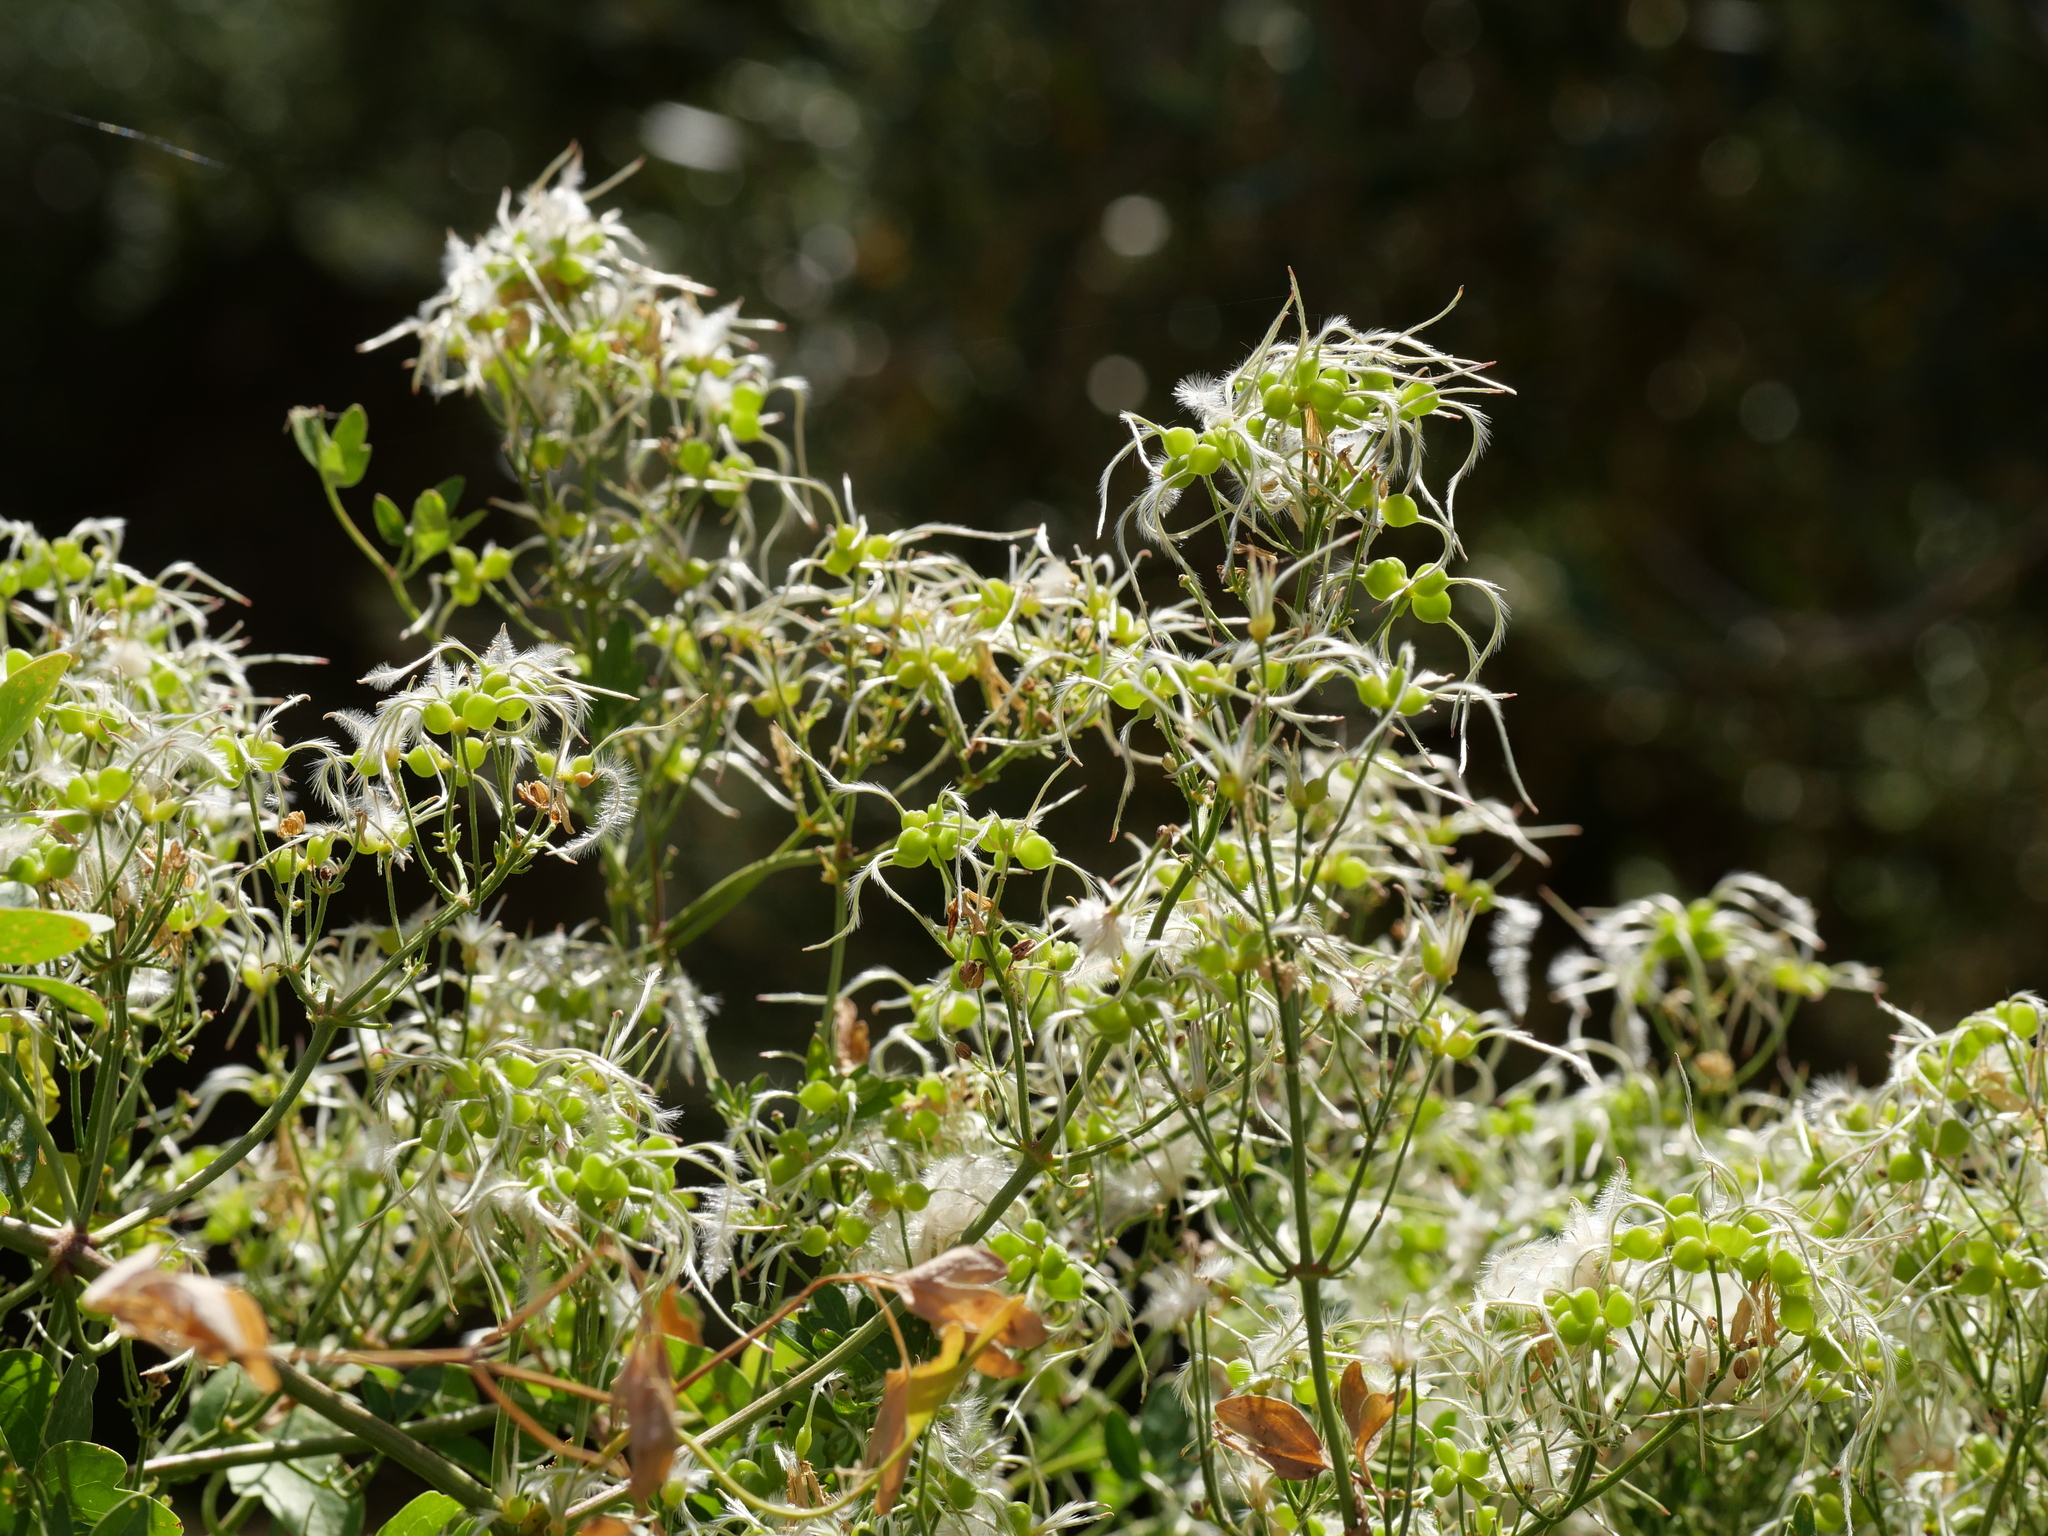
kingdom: Plantae
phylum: Tracheophyta
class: Magnoliopsida
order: Ranunculales
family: Ranunculaceae
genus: Clematis
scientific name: Clematis flammula
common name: Virgin's-bower
